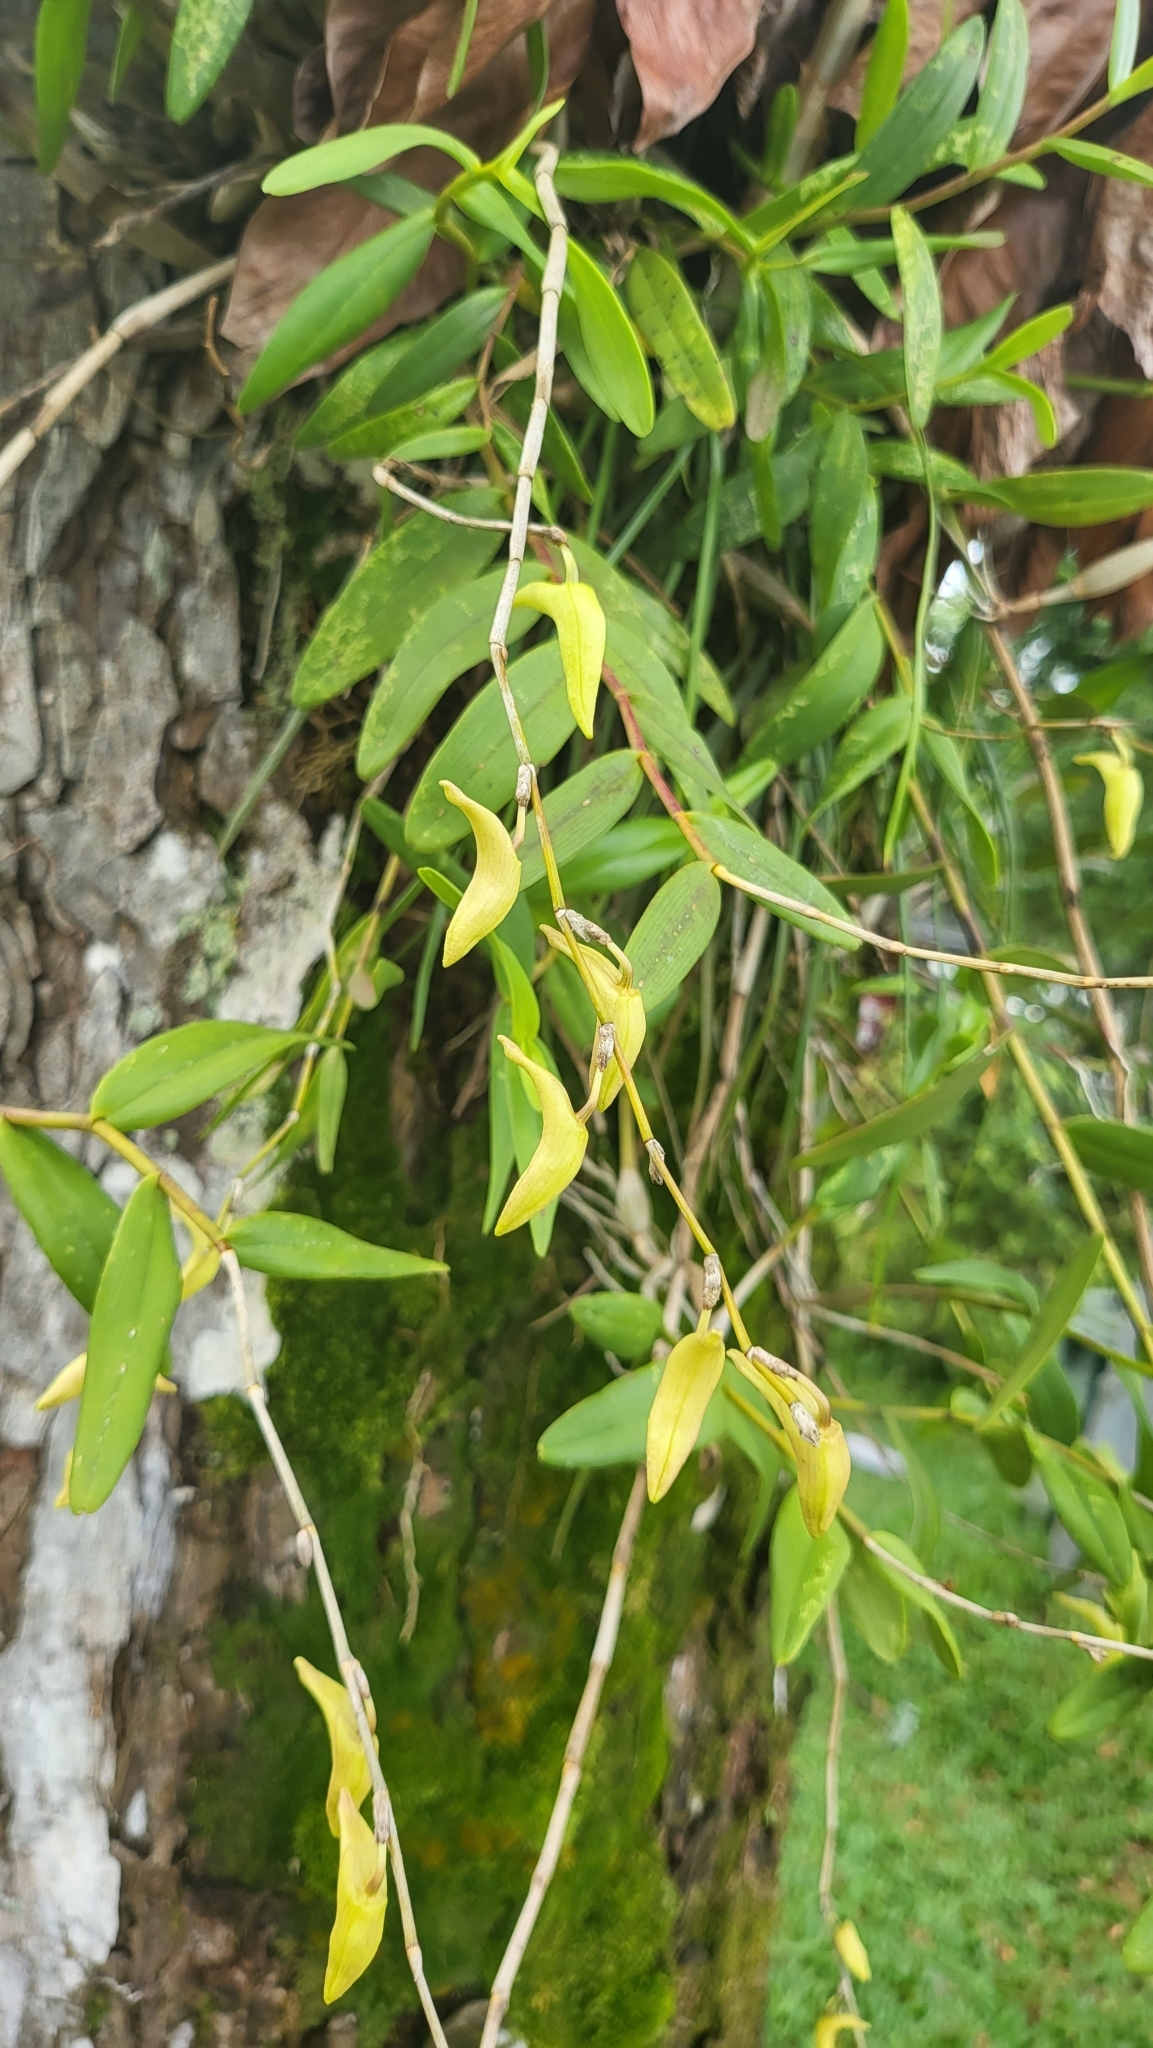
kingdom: Plantae
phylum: Tracheophyta
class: Liliopsida
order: Asparagales
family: Orchidaceae
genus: Dendrobium
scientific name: Dendrobium crumenatum
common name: Orchid
